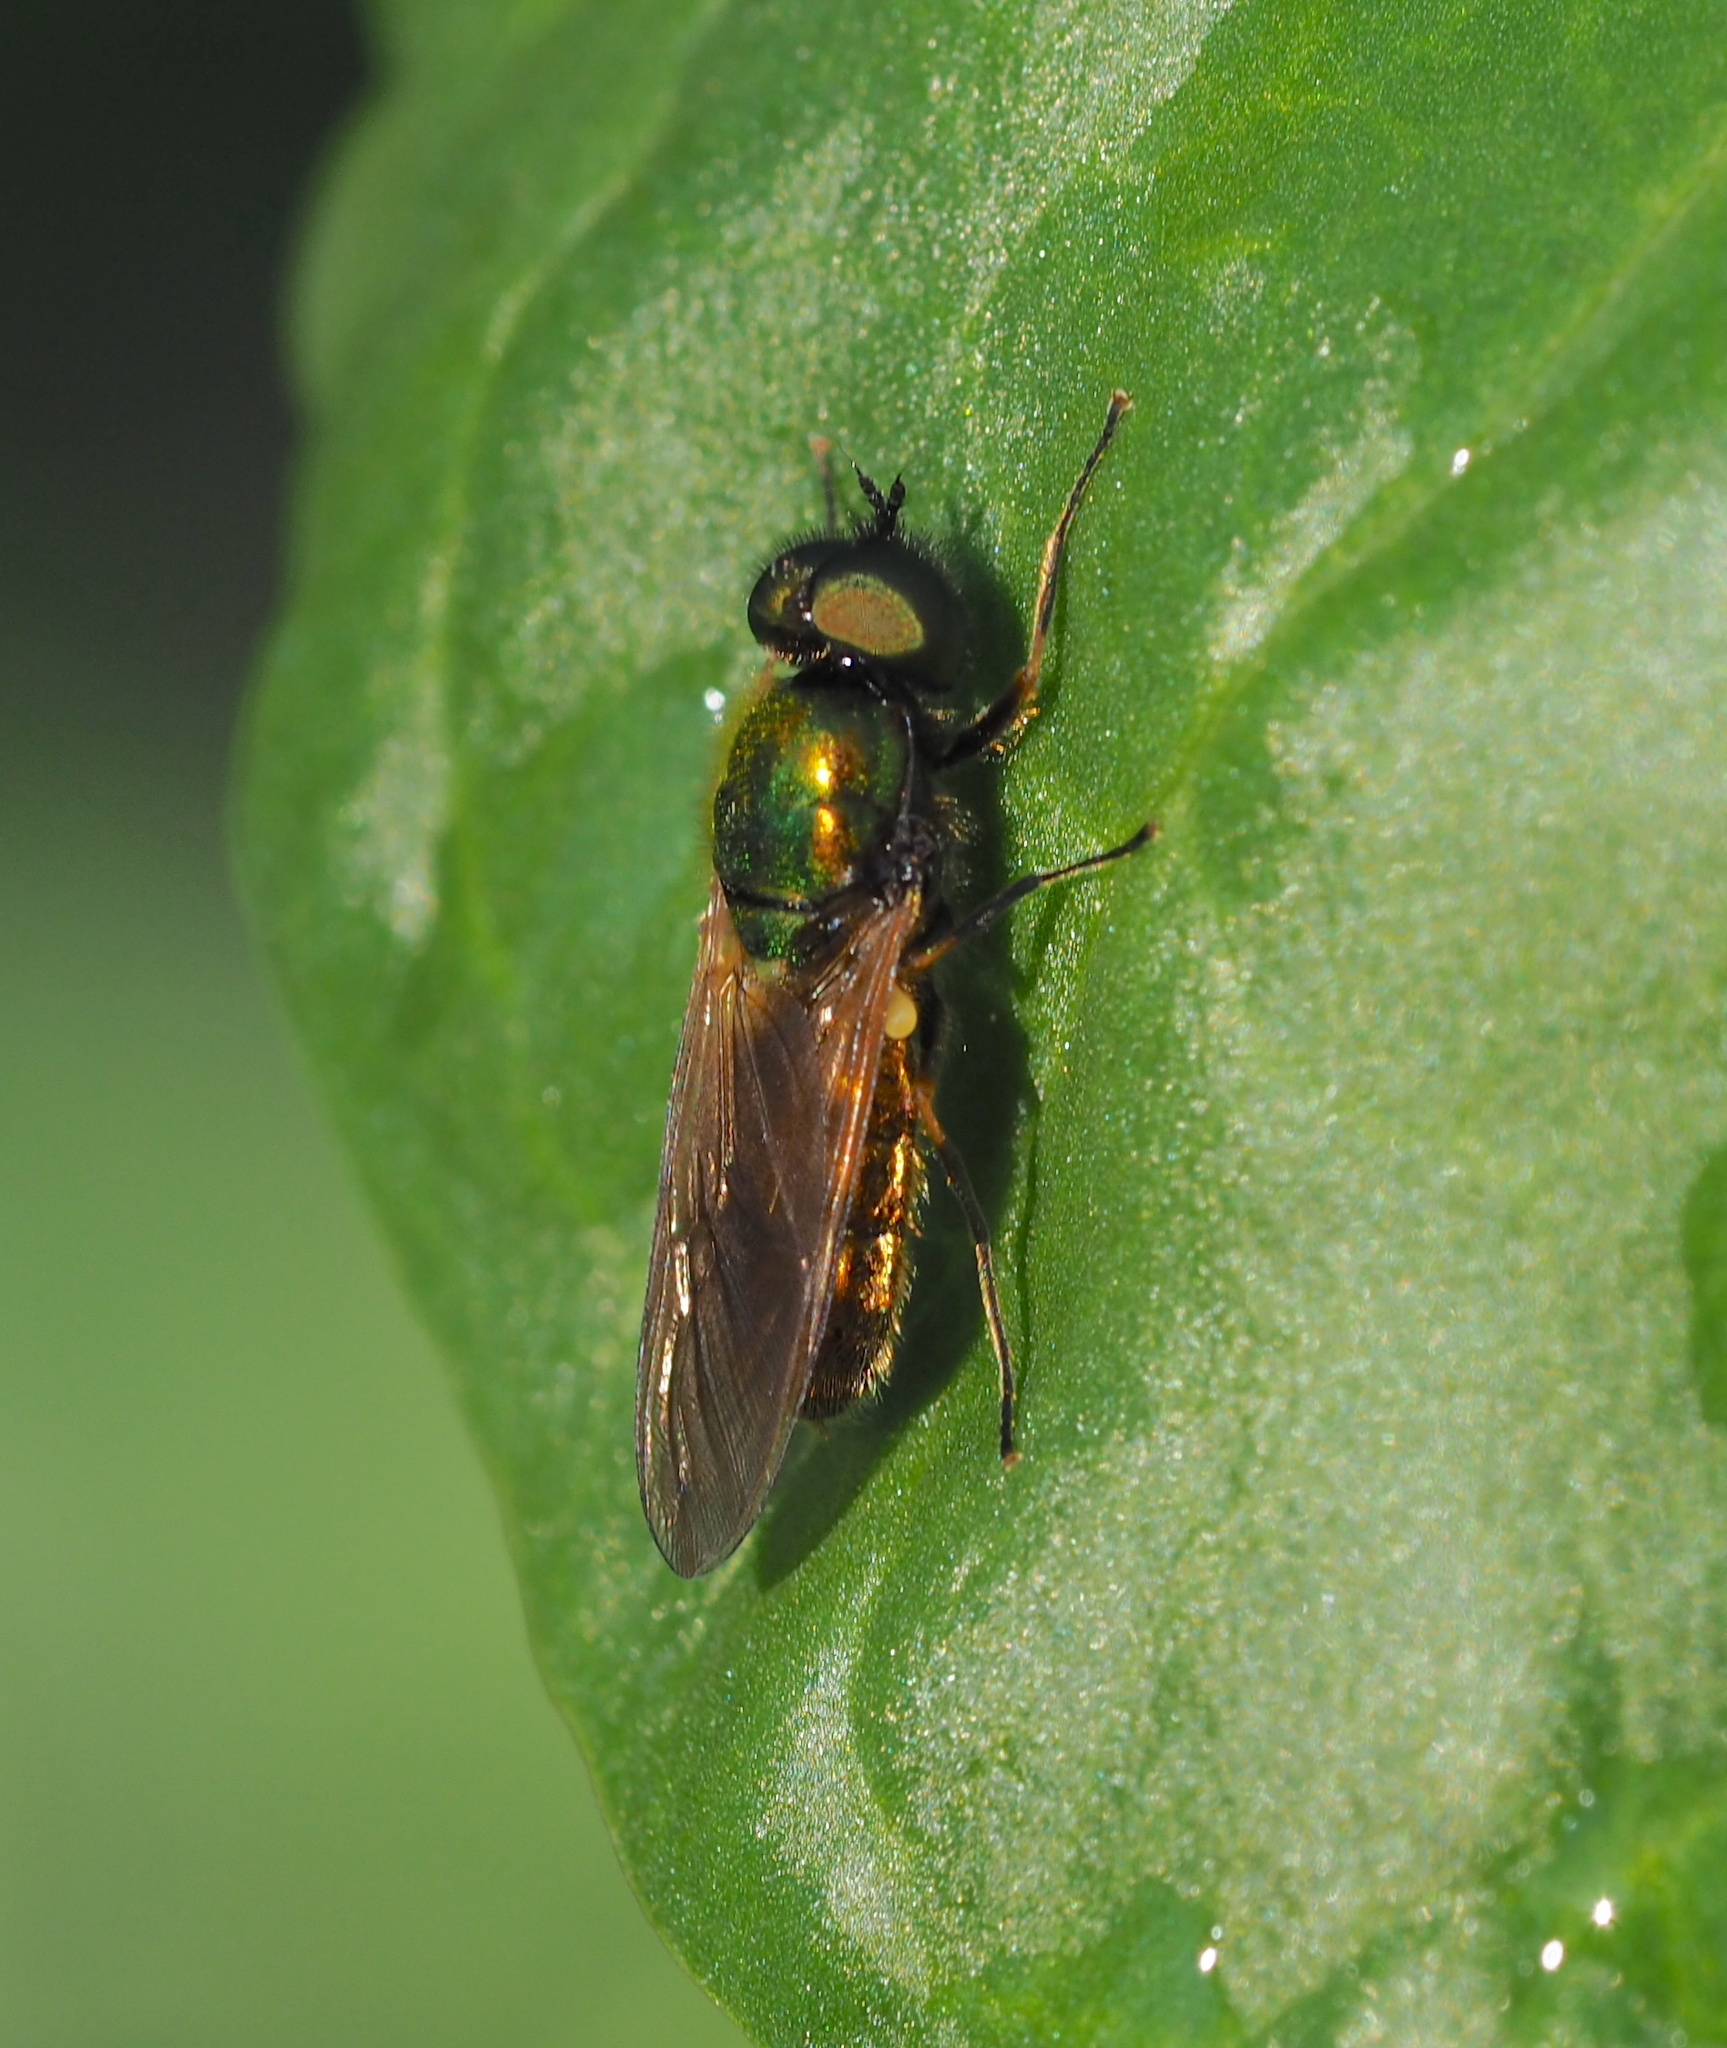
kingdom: Animalia
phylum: Arthropoda
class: Insecta
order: Diptera
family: Stratiomyidae
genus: Chloromyia
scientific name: Chloromyia formosa
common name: Soldier fly
